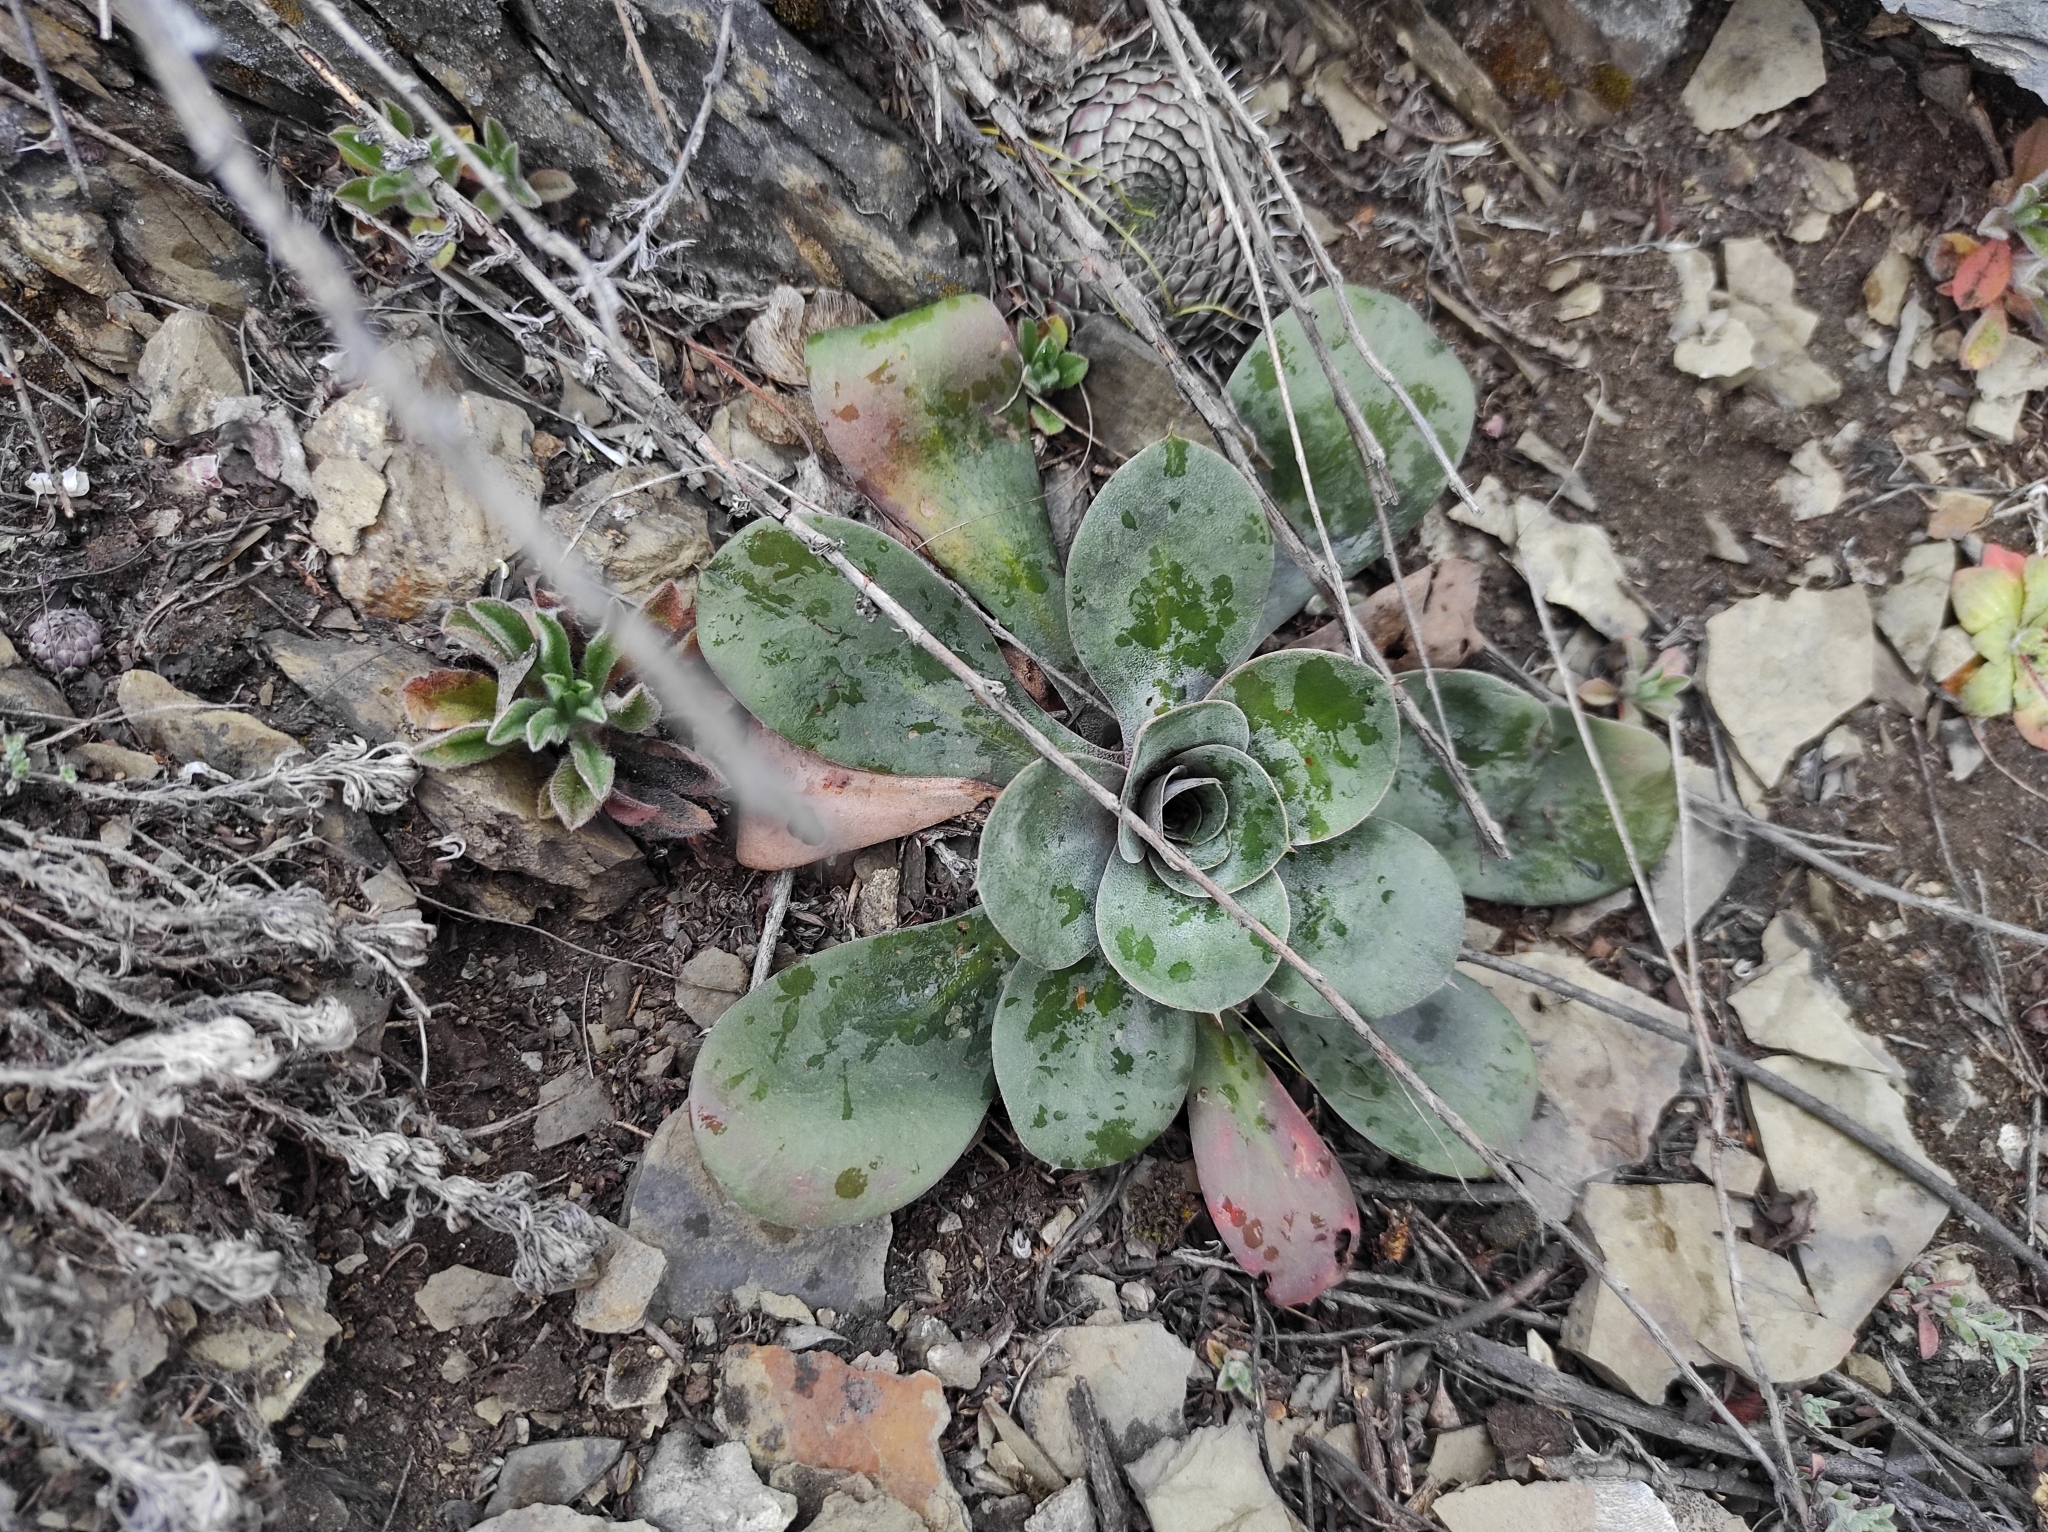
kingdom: Plantae
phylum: Tracheophyta
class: Magnoliopsida
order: Saxifragales
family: Crassulaceae
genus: Orostachys
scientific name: Orostachys spinosa
